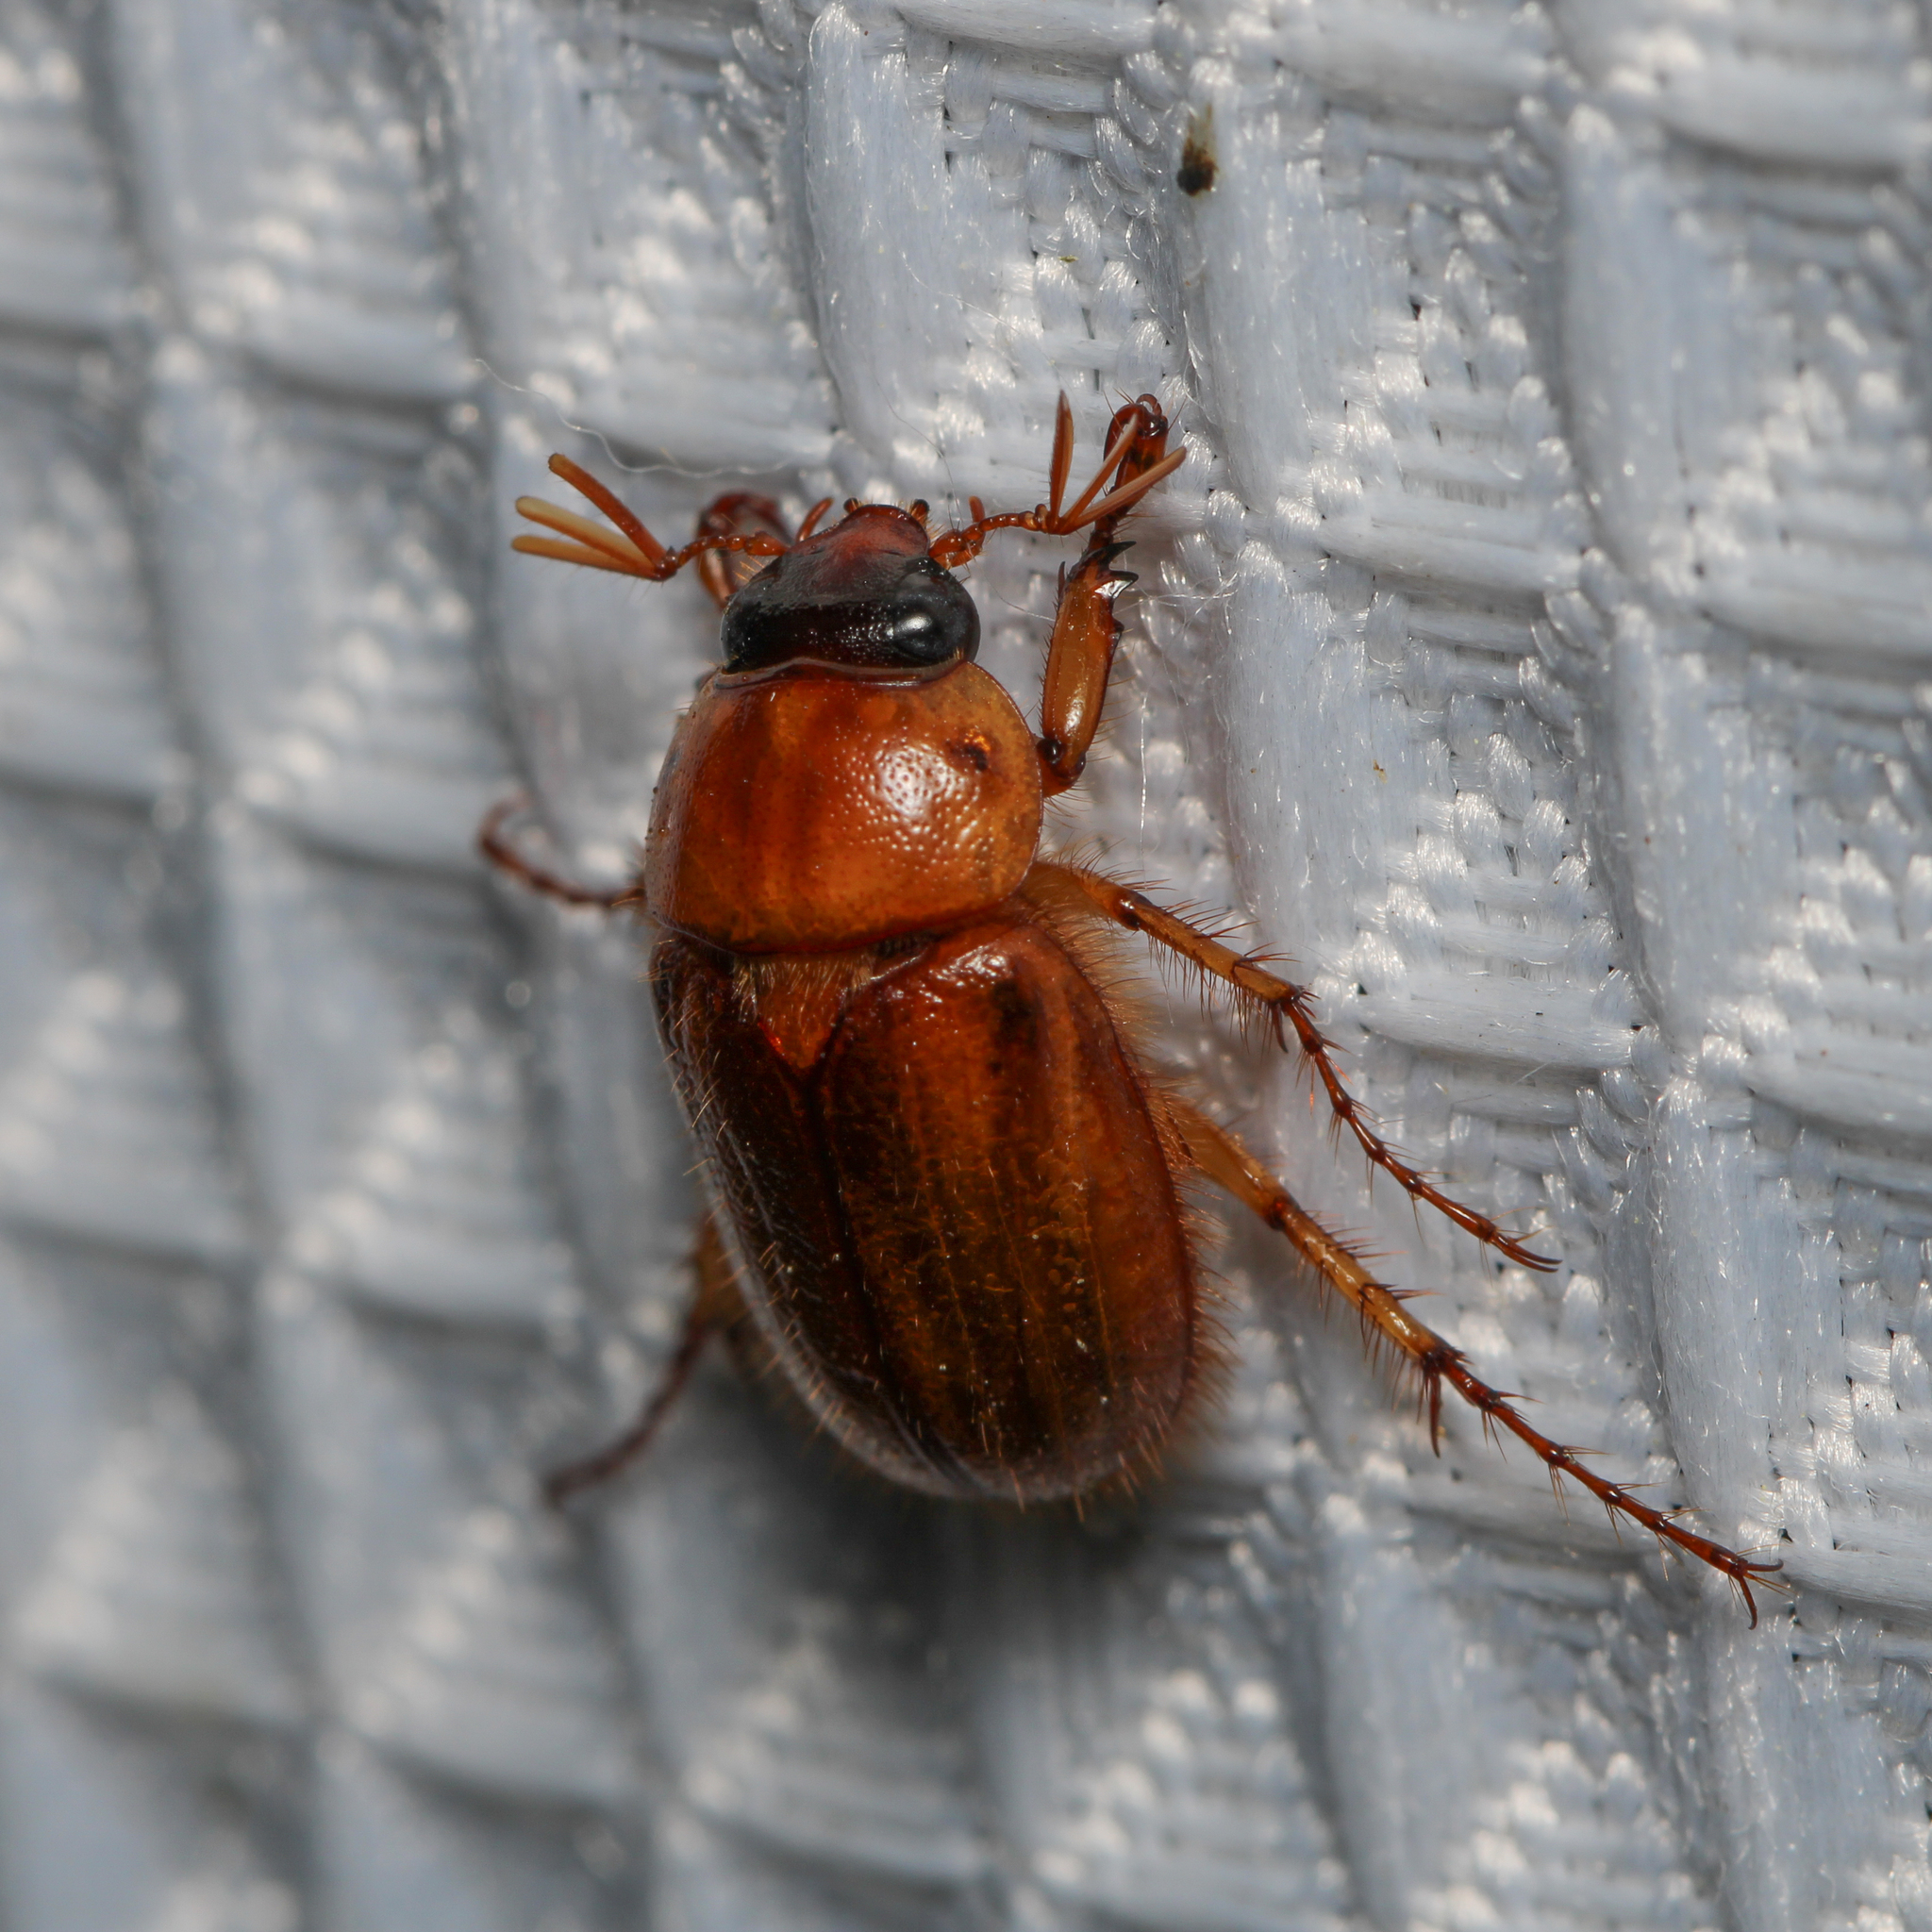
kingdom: Animalia
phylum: Arthropoda
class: Insecta
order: Coleoptera
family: Scarabaeidae
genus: Cyclocephala
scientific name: Cyclocephala lurida
